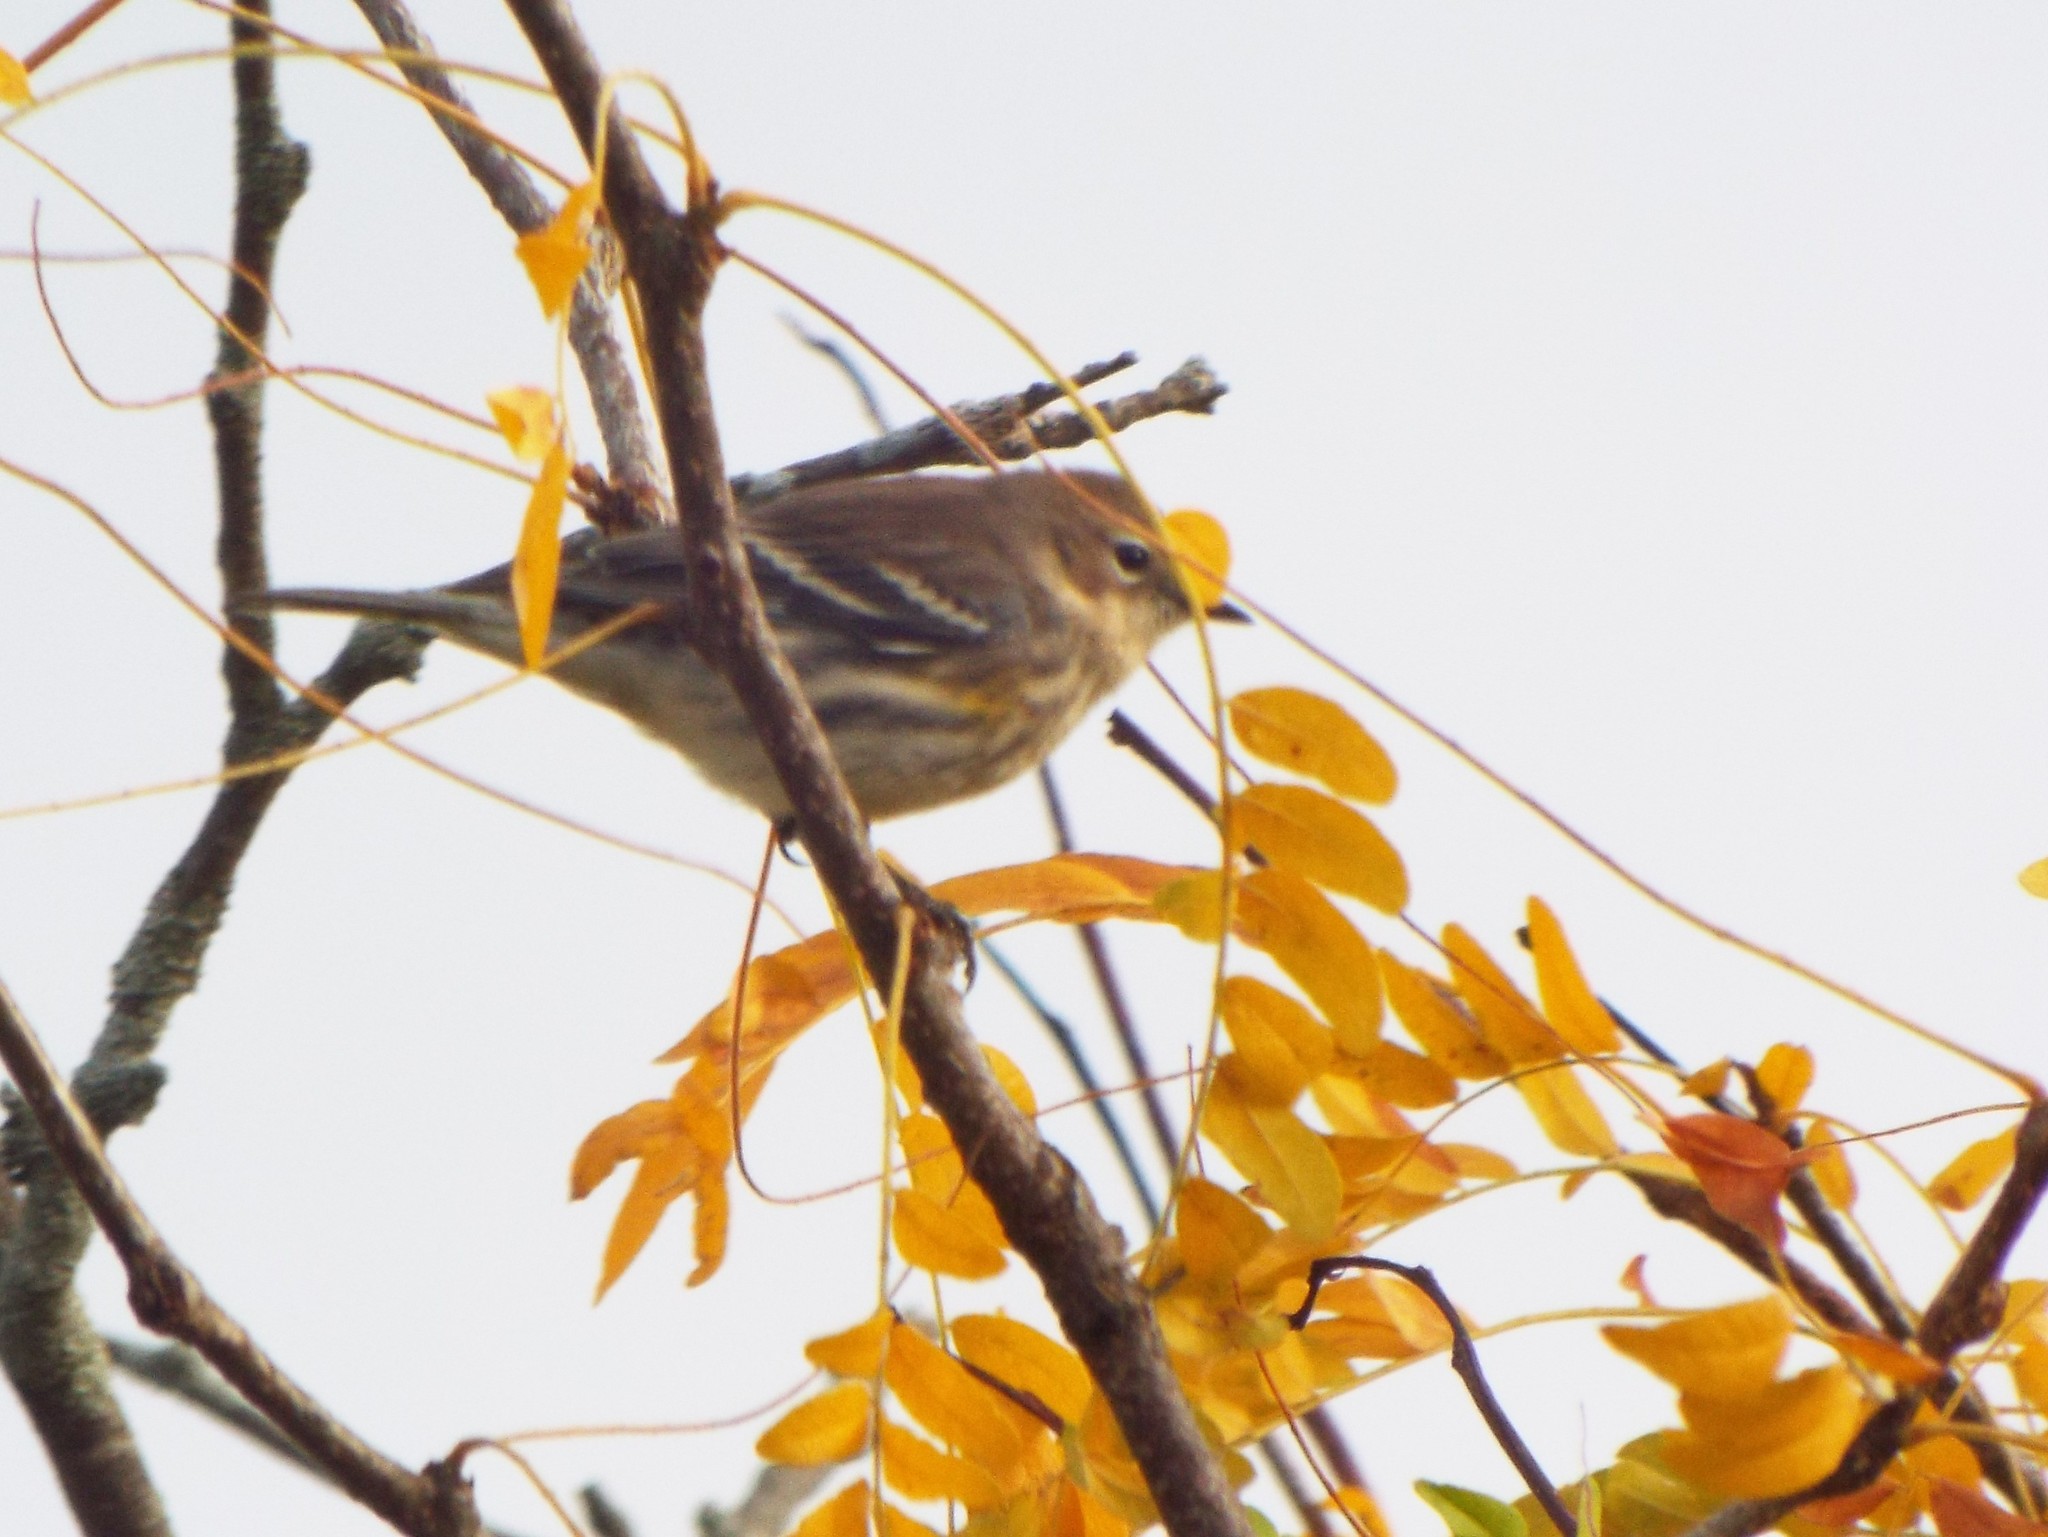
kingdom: Animalia
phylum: Chordata
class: Aves
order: Passeriformes
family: Parulidae
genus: Setophaga
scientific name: Setophaga coronata
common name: Myrtle warbler
